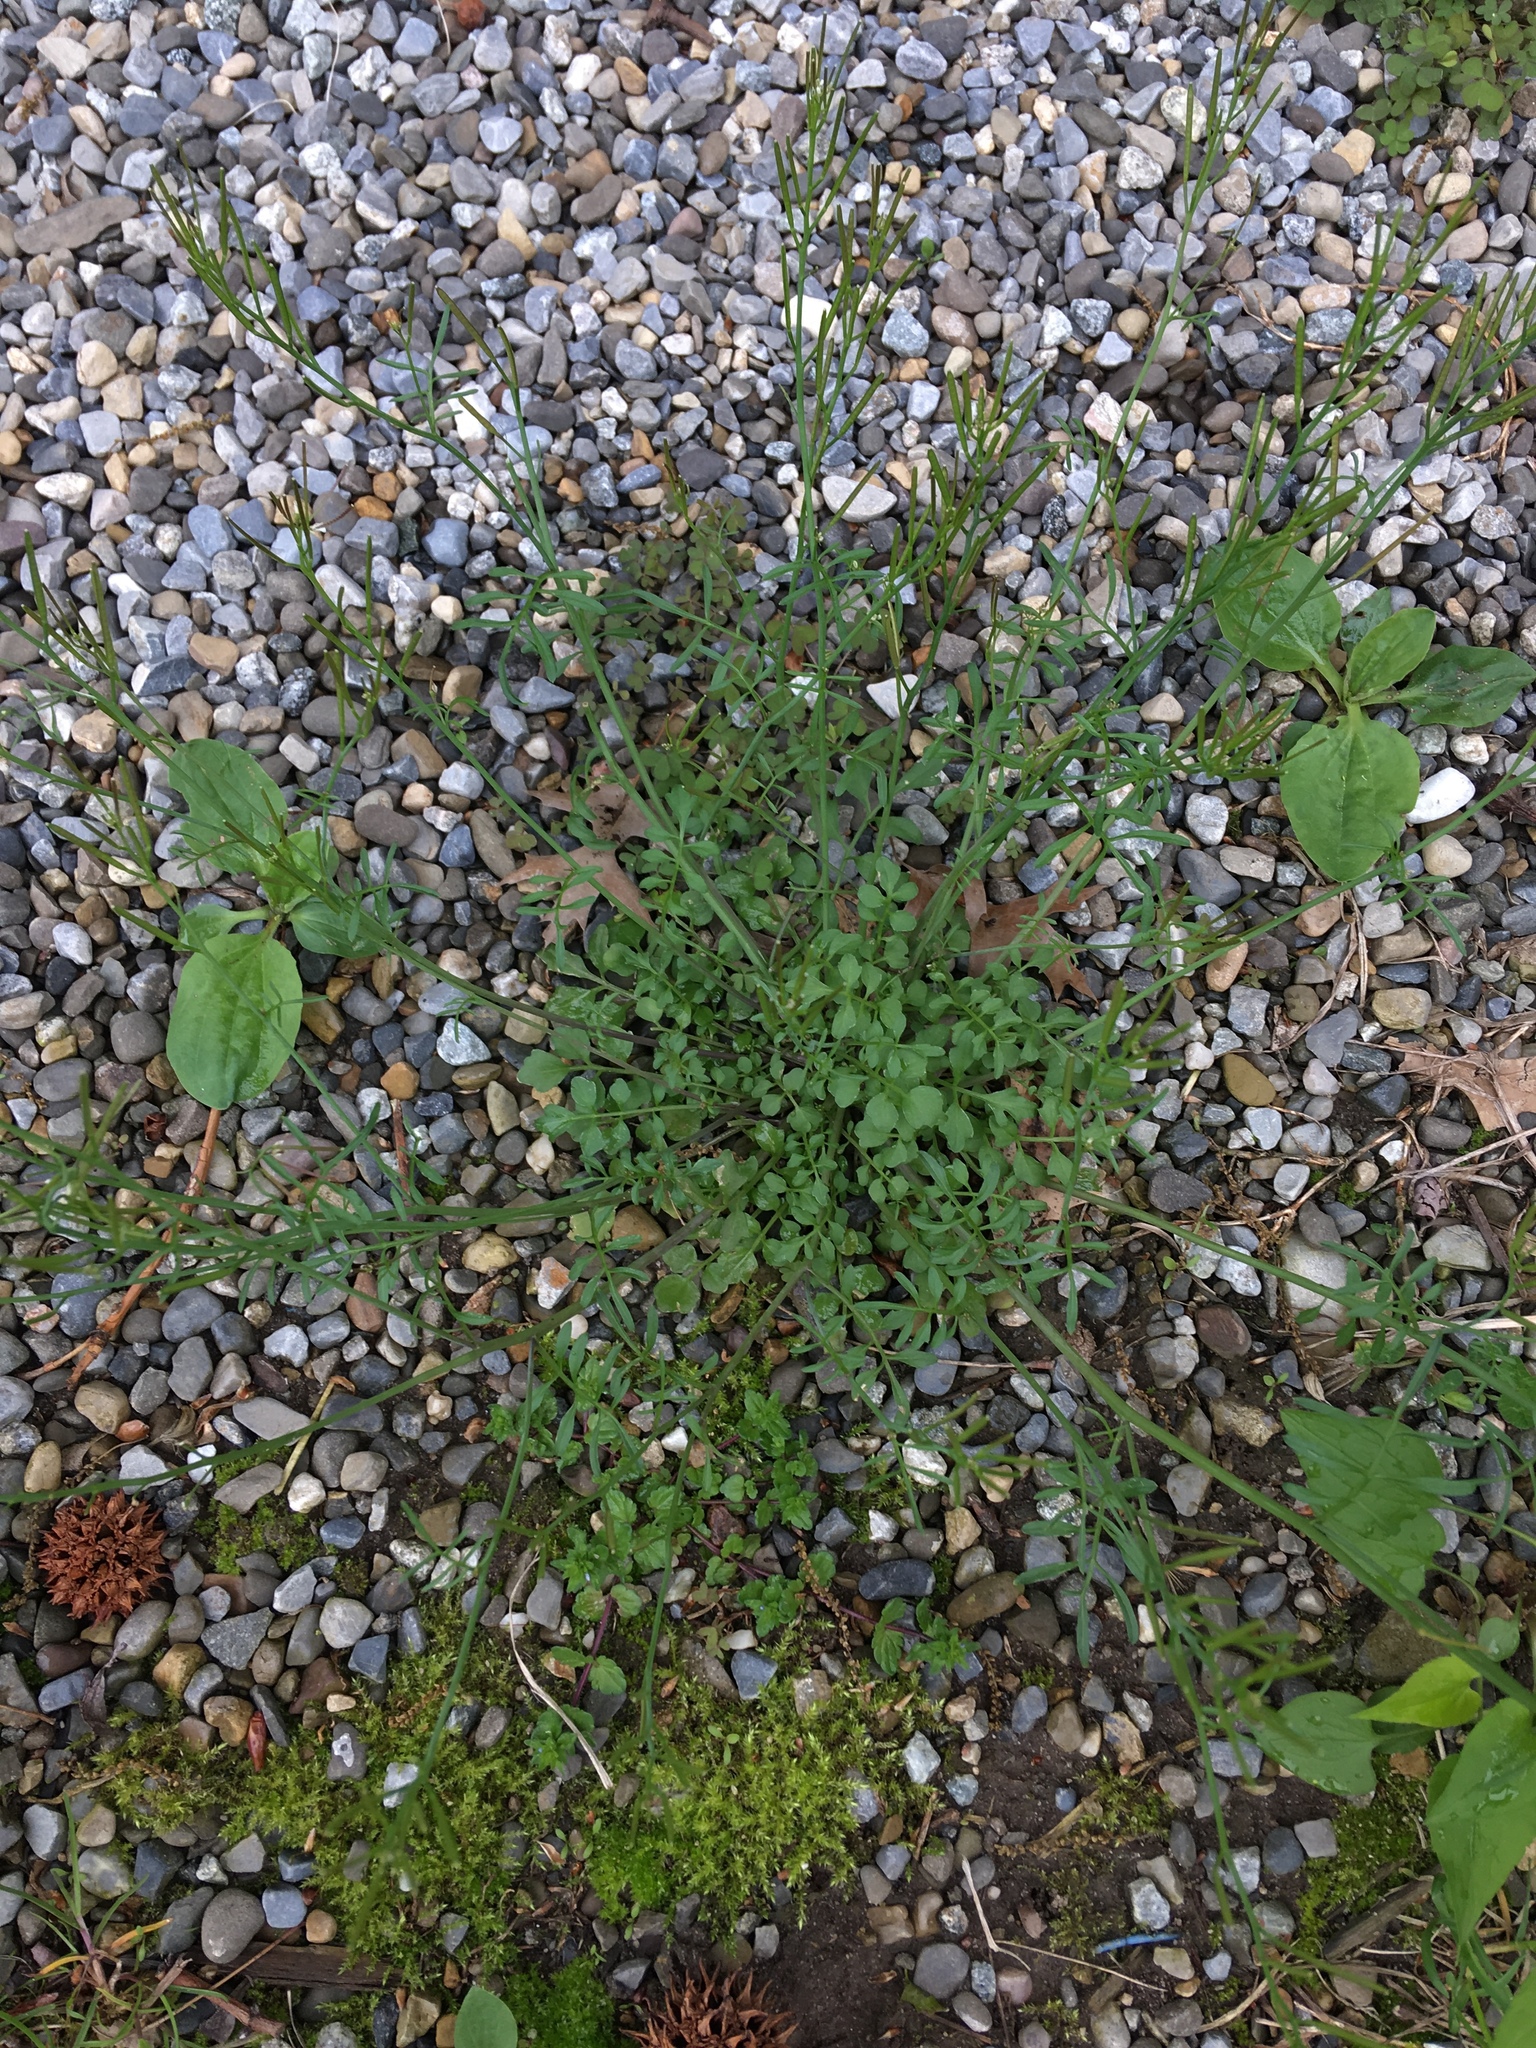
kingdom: Plantae
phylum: Tracheophyta
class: Magnoliopsida
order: Brassicales
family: Brassicaceae
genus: Cardamine
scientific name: Cardamine hirsuta
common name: Hairy bittercress
